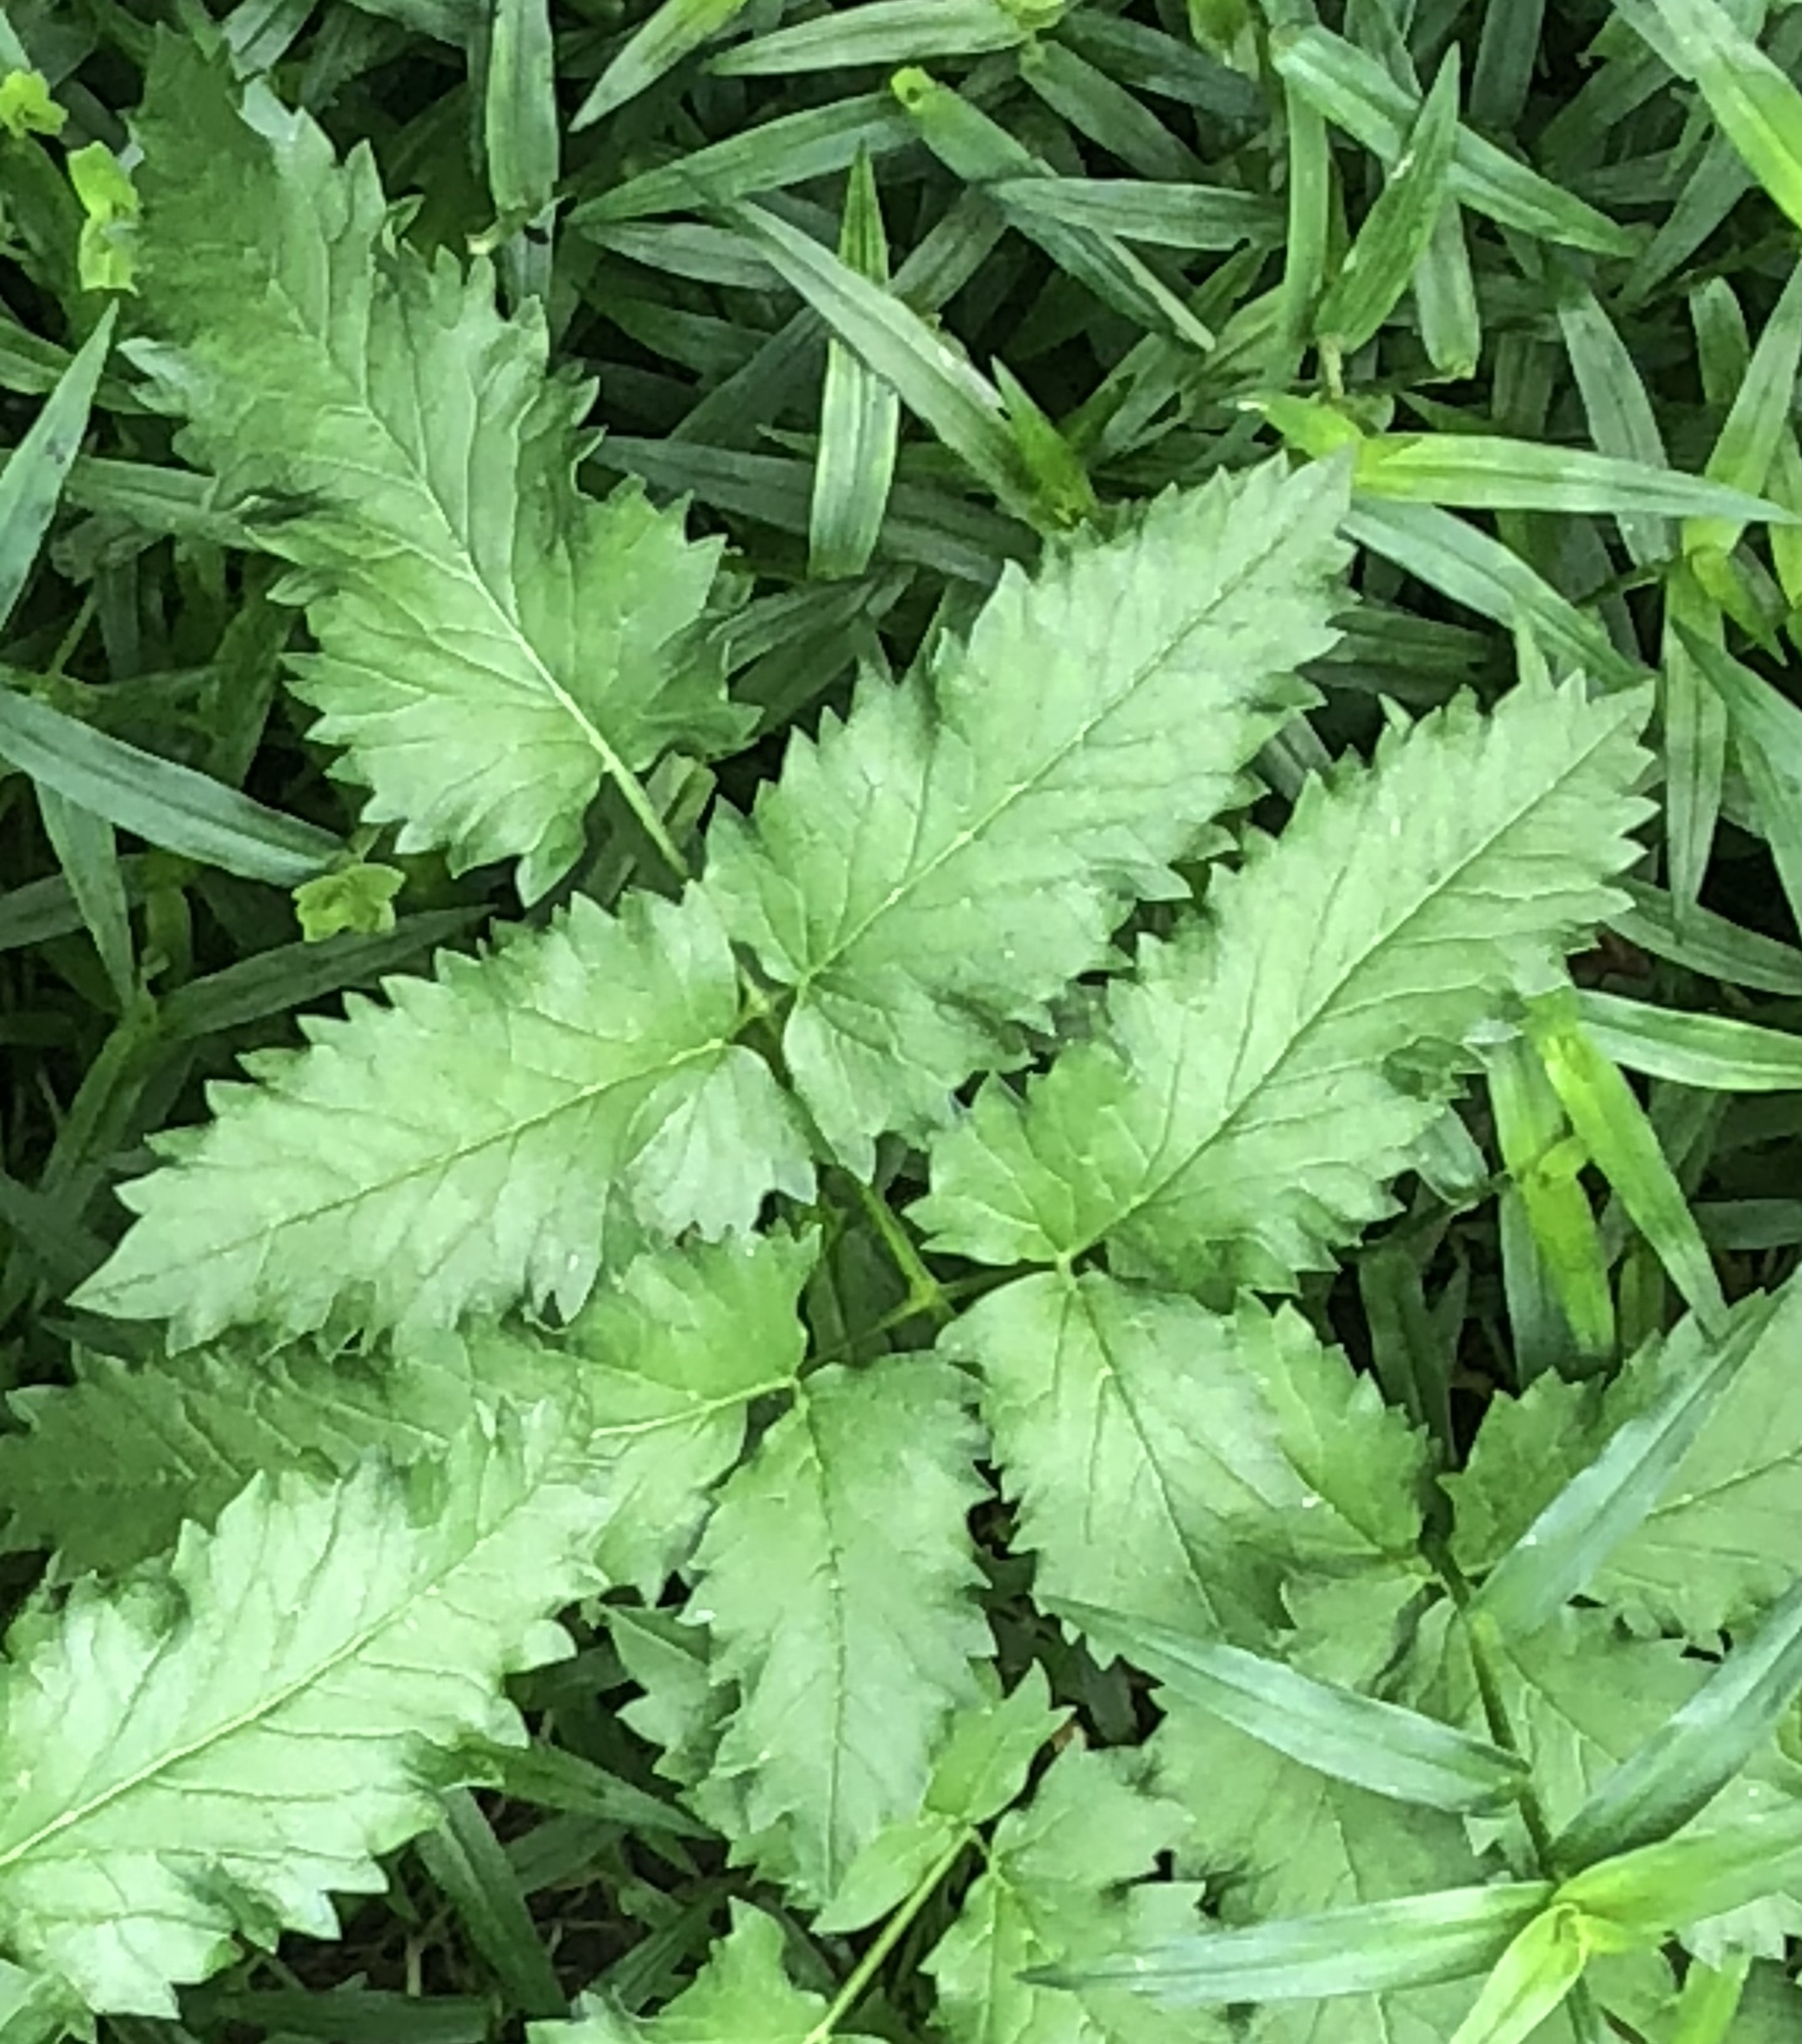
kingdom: Plantae
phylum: Tracheophyta
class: Magnoliopsida
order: Apiales
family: Apiaceae
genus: Aegopodium
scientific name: Aegopodium podagraria
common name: Ground-elder
